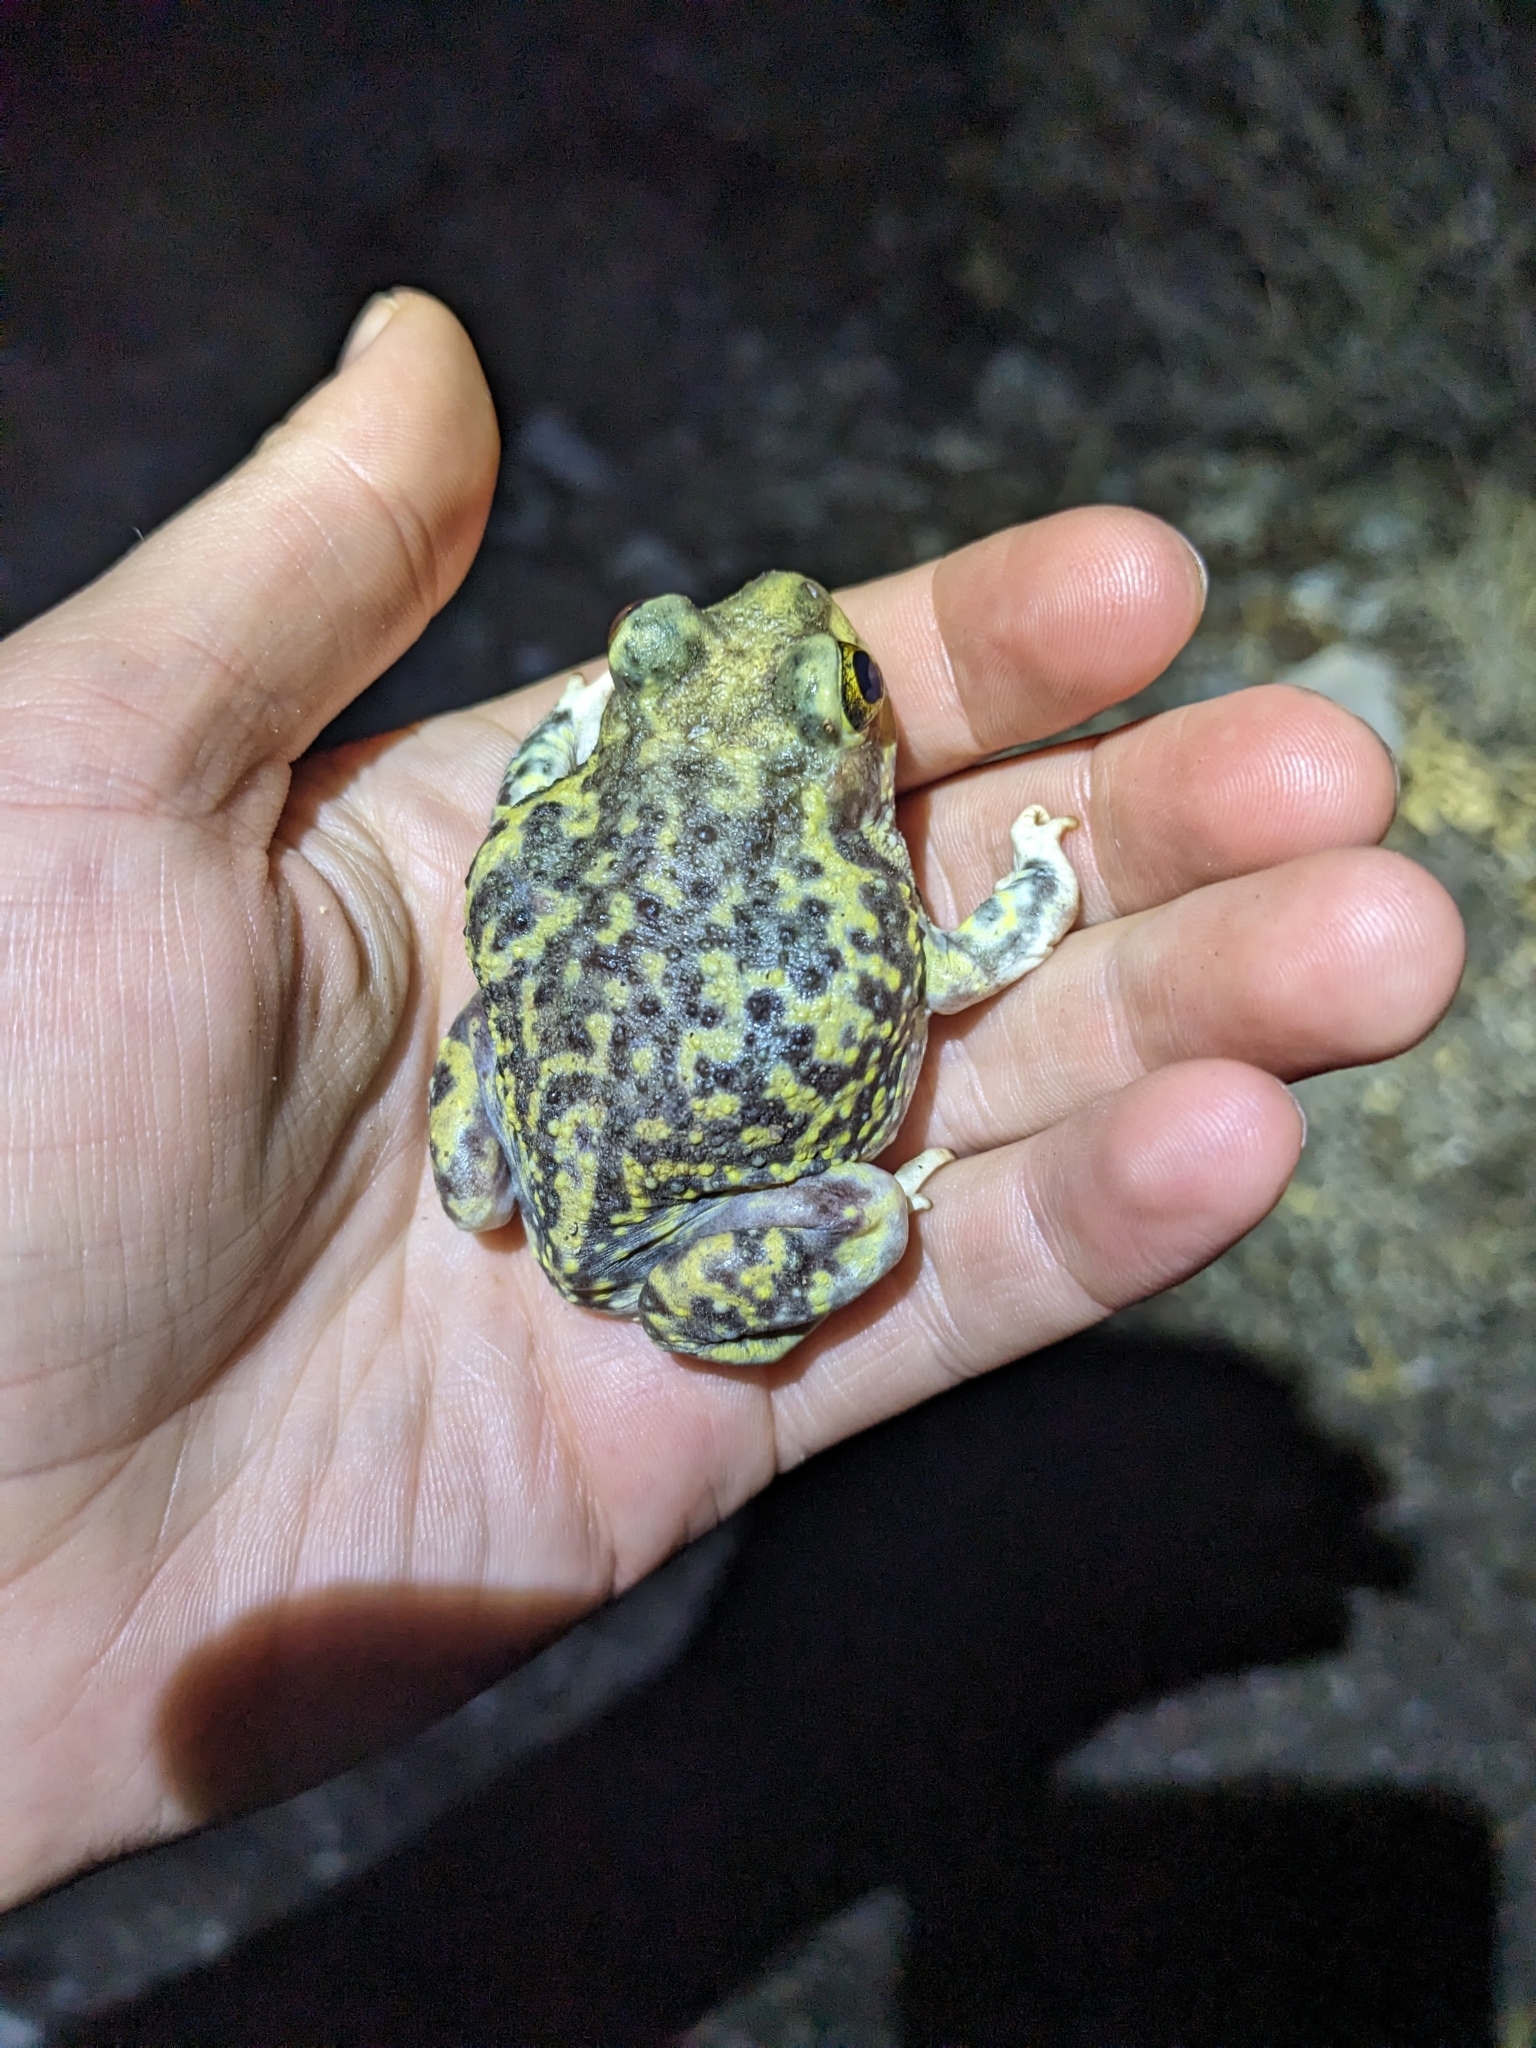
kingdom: Animalia
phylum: Chordata
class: Amphibia
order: Anura
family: Scaphiopodidae
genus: Scaphiopus
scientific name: Scaphiopus couchii
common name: Couch's spadefoot toad
